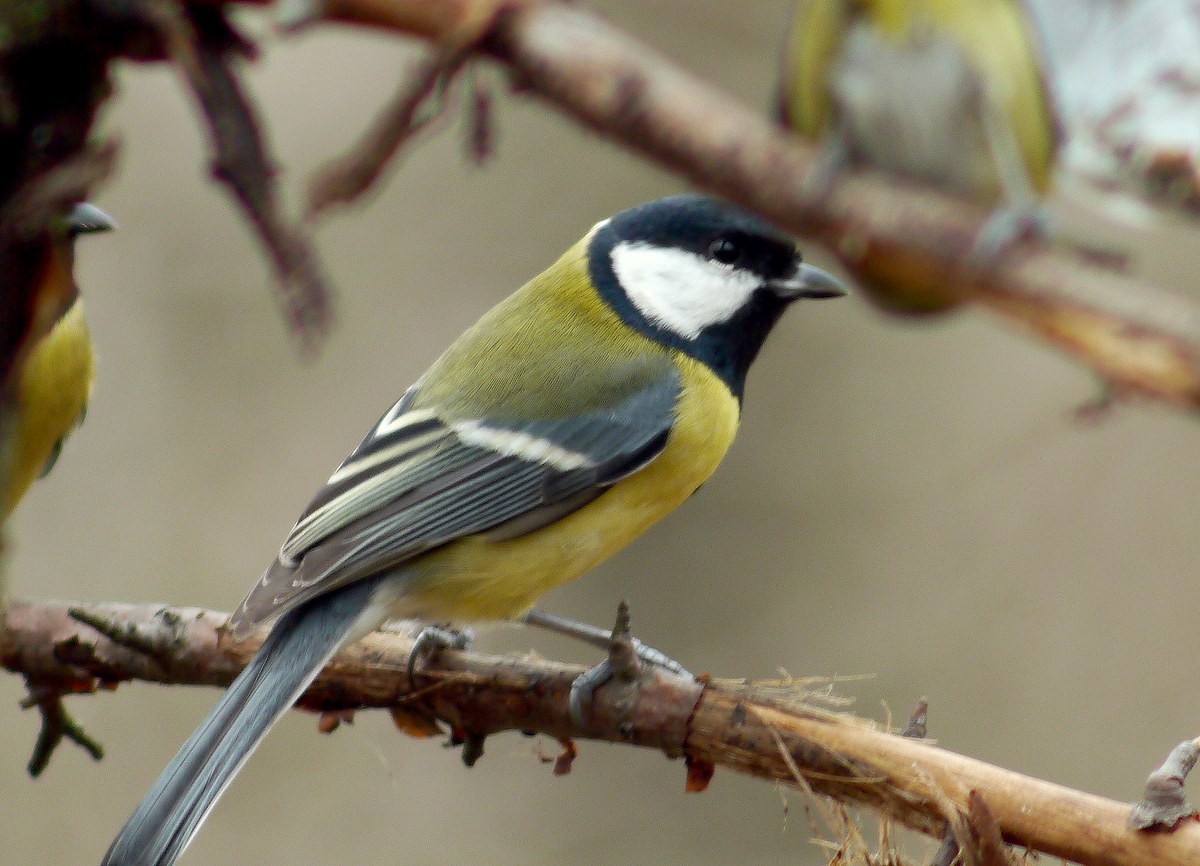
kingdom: Animalia
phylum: Chordata
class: Aves
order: Passeriformes
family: Paridae
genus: Parus
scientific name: Parus major
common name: Great tit
